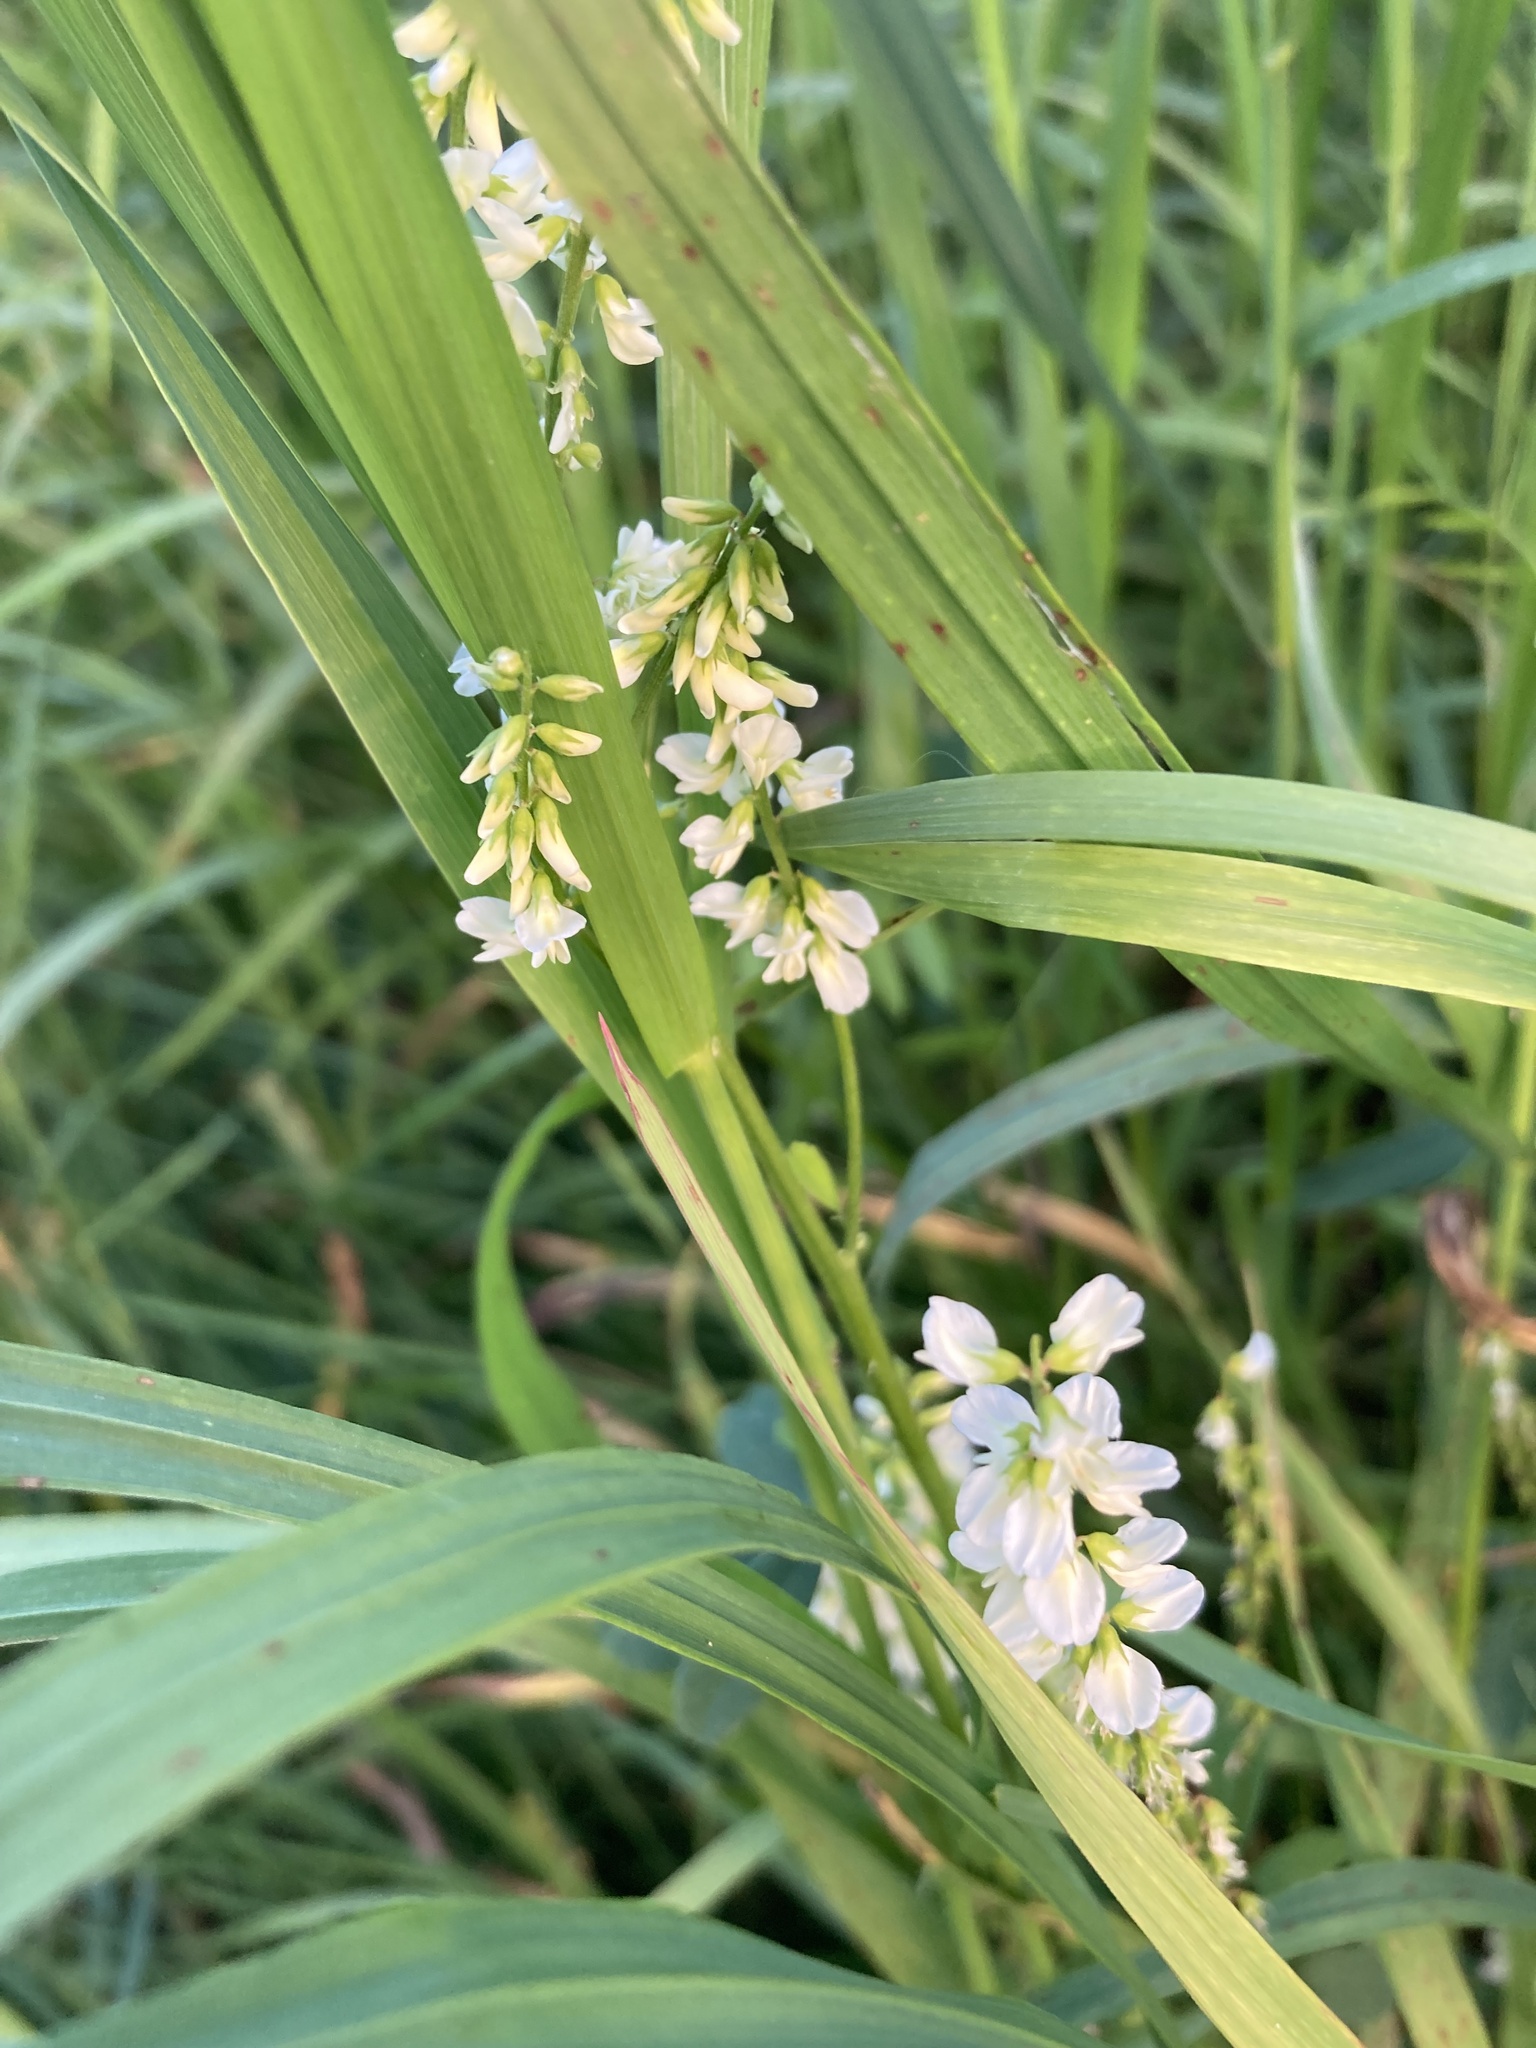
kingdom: Plantae
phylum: Tracheophyta
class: Magnoliopsida
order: Fabales
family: Fabaceae
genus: Melilotus
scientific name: Melilotus albus
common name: White melilot
